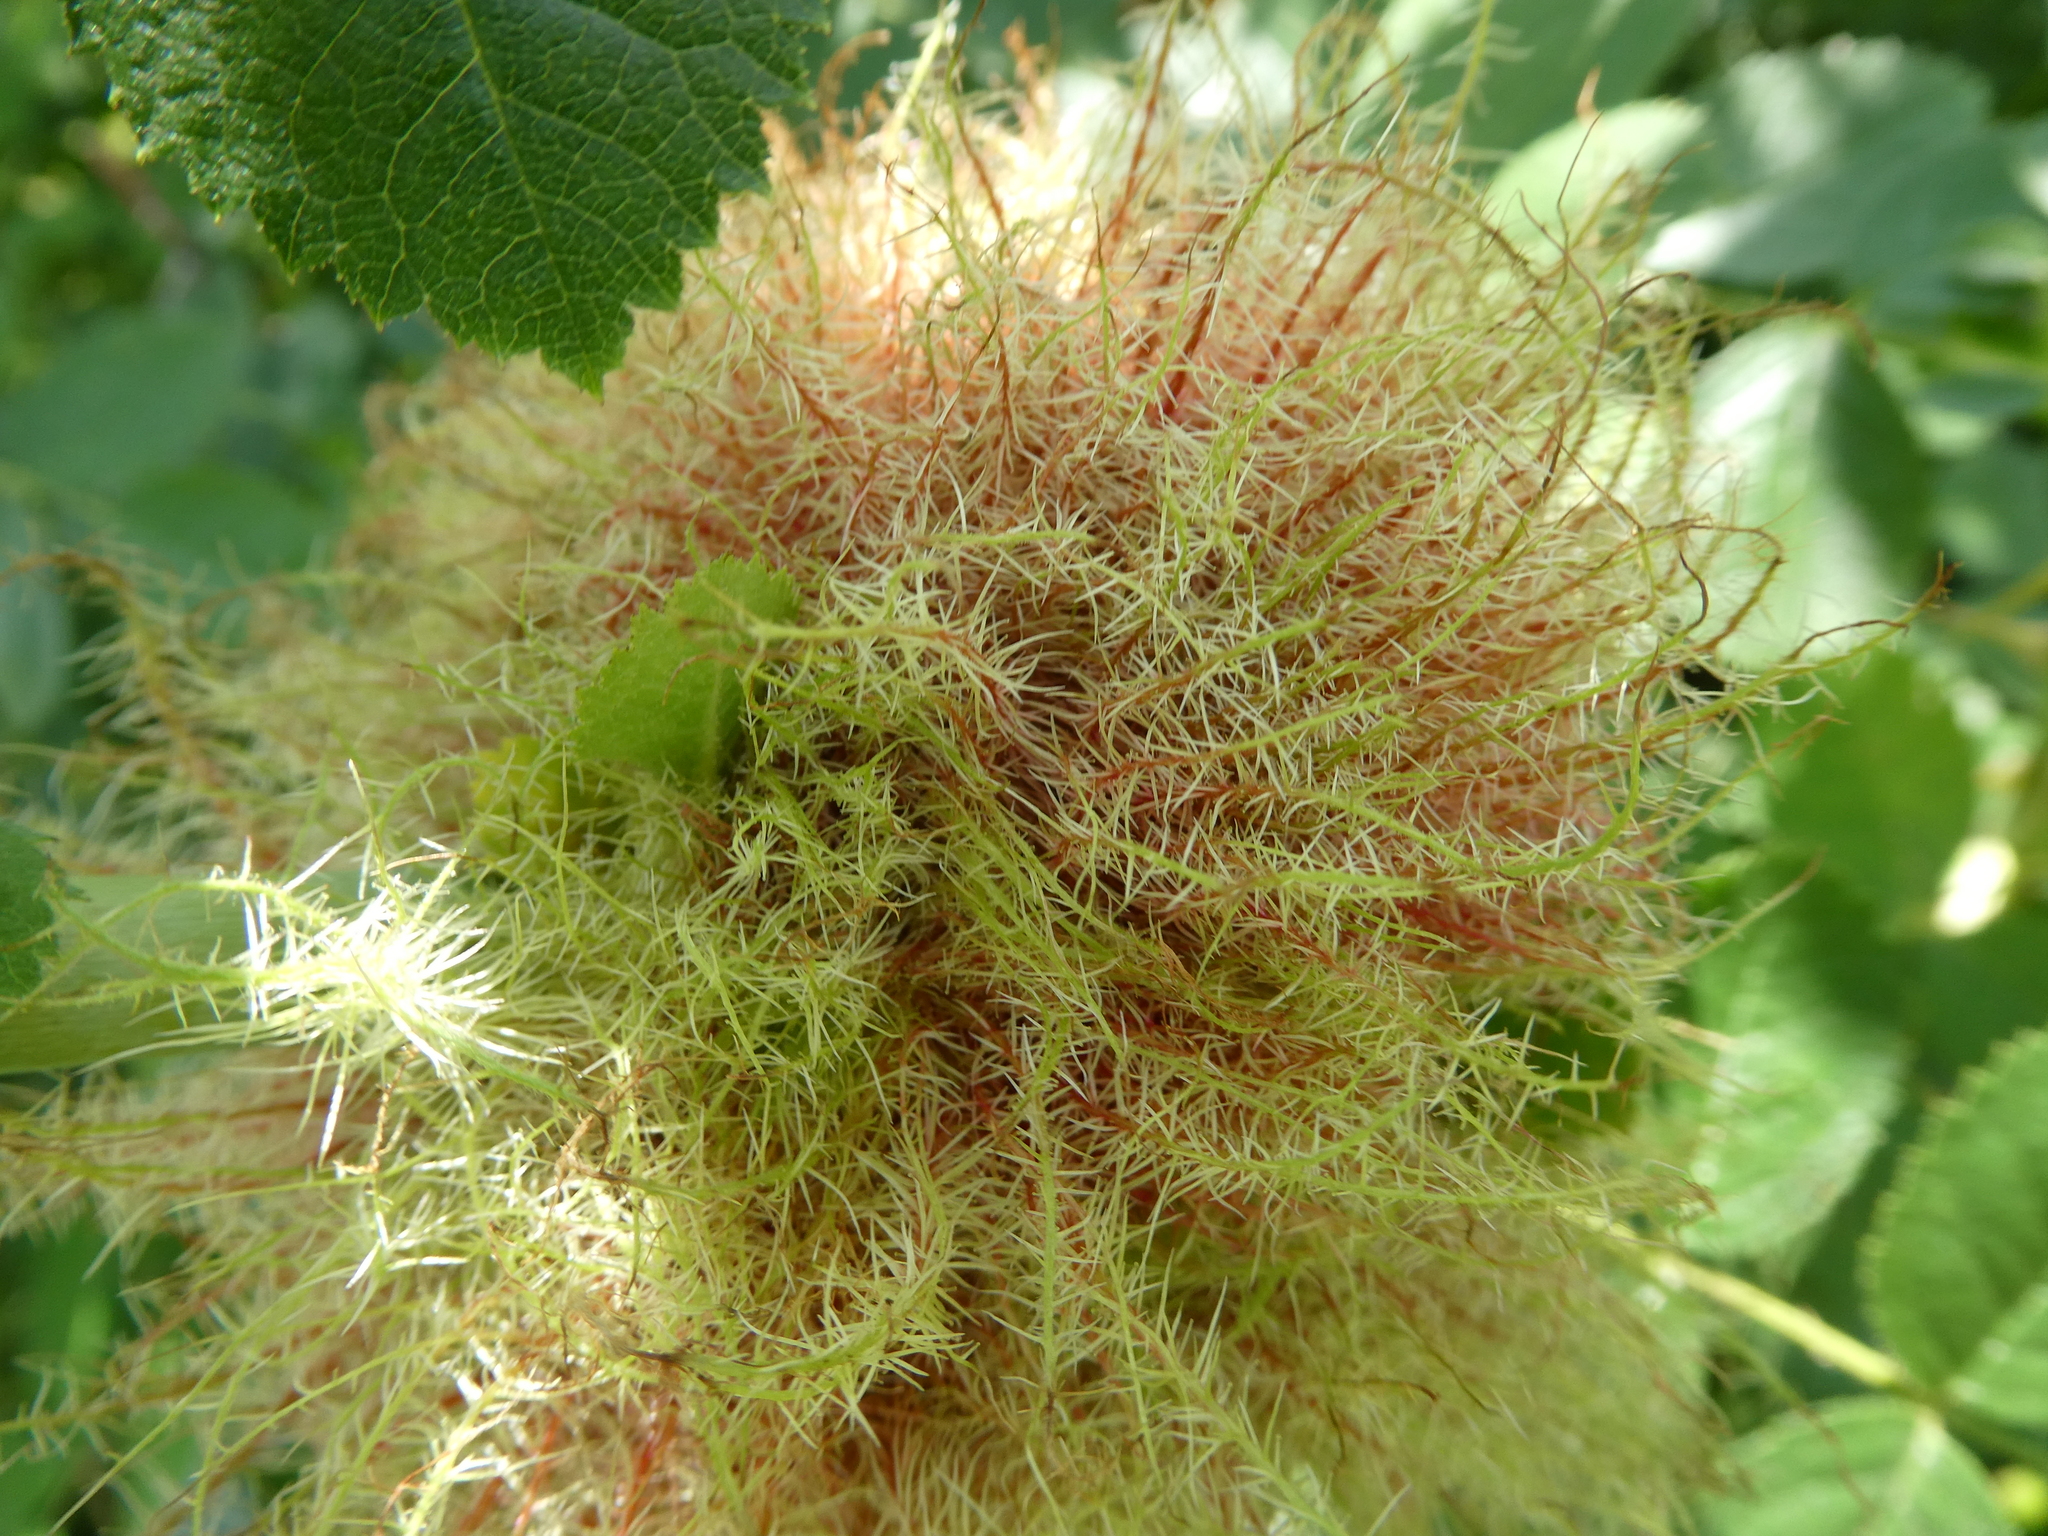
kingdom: Animalia
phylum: Arthropoda
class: Insecta
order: Hymenoptera
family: Cynipidae
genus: Diplolepis
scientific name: Diplolepis rosae
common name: Bedeguar gall
